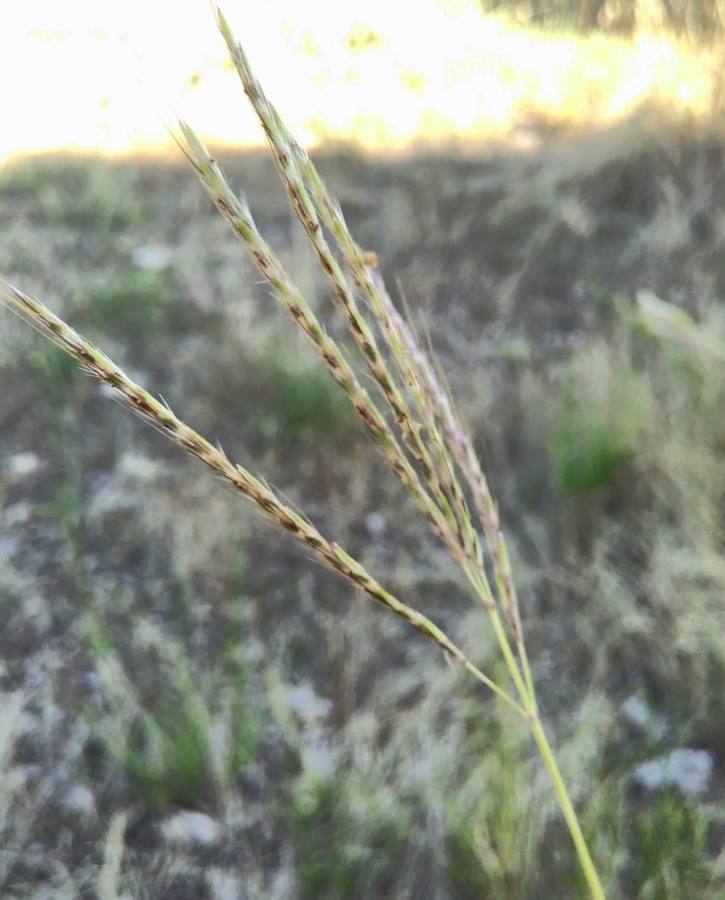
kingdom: Plantae
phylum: Tracheophyta
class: Liliopsida
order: Poales
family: Poaceae
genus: Bothriochloa
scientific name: Bothriochloa barbinodis
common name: Cane bluestem
